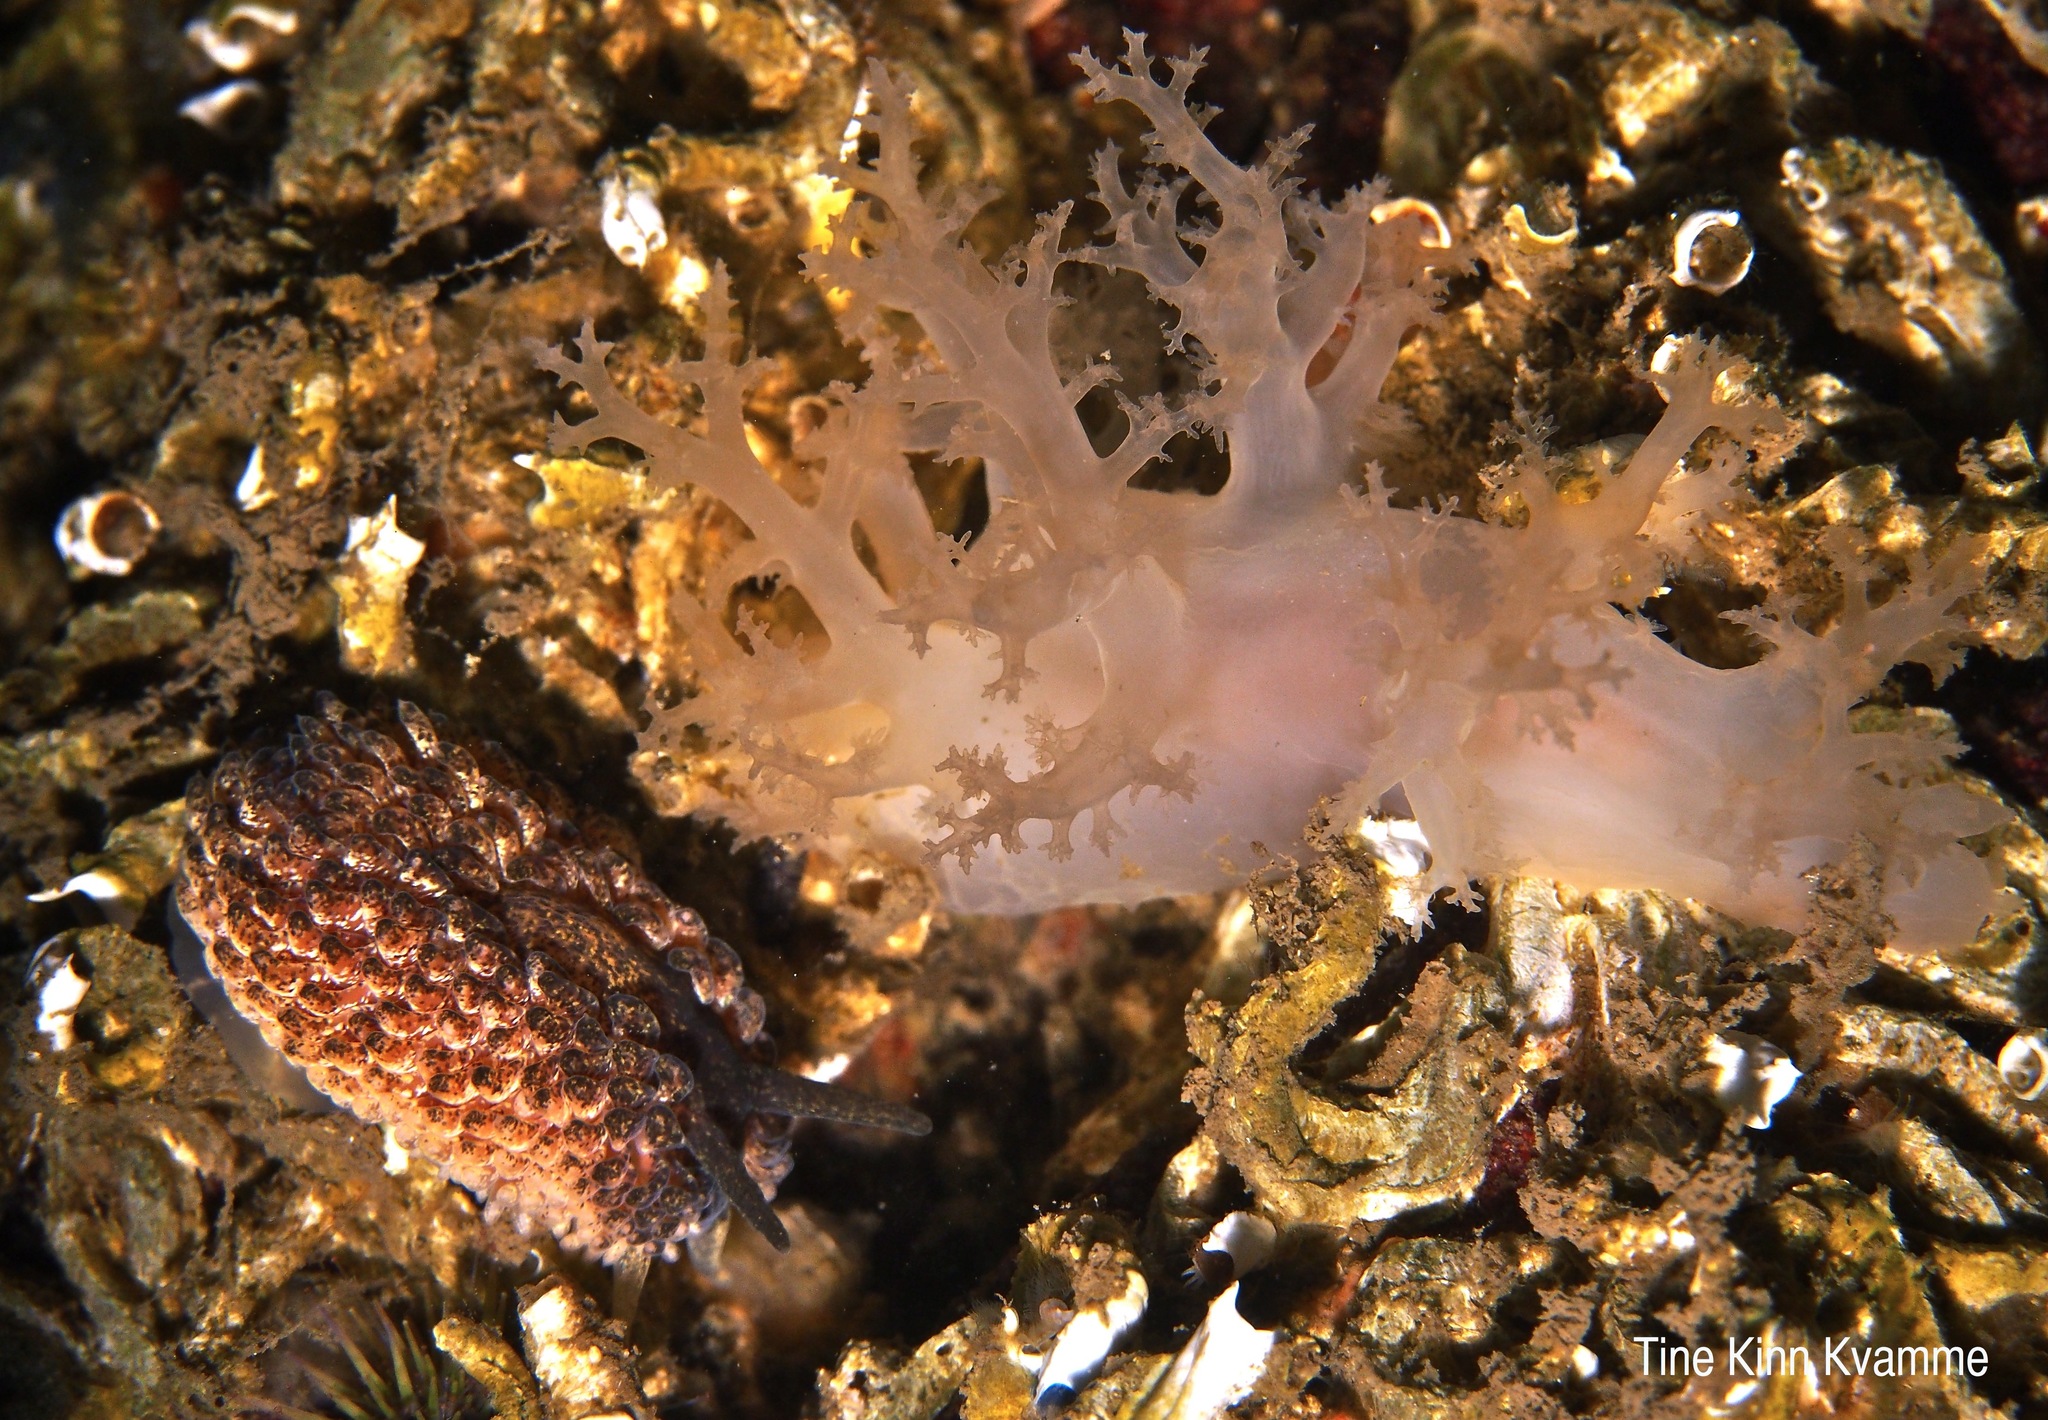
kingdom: Animalia
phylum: Mollusca
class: Gastropoda
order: Nudibranchia
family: Dendronotidae
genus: Dendronotus
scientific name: Dendronotus lacteus
